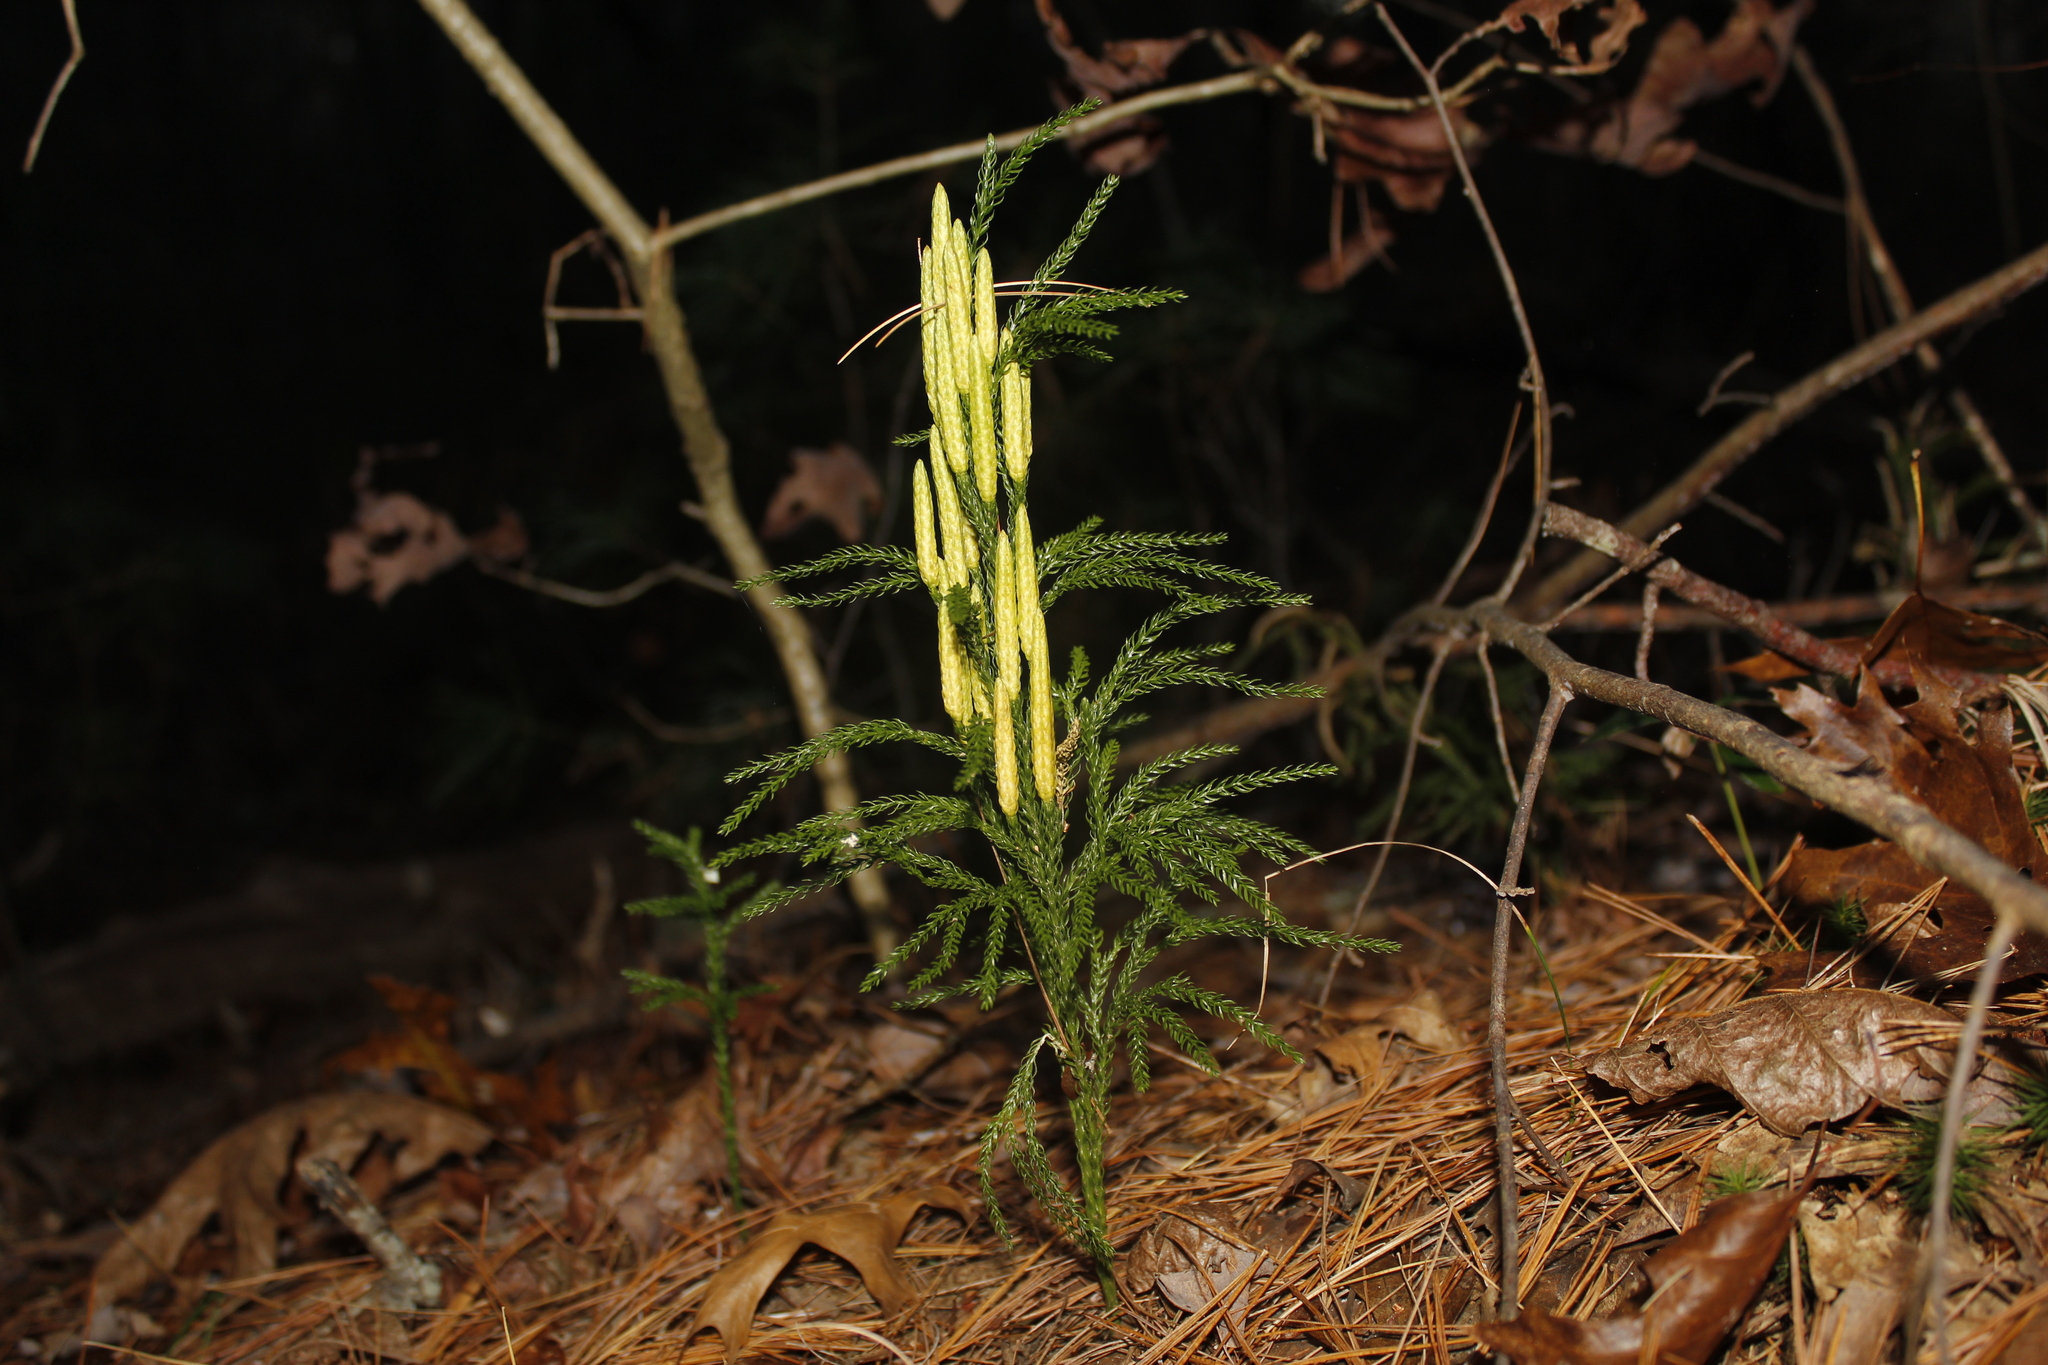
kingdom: Plantae
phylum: Tracheophyta
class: Lycopodiopsida
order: Lycopodiales
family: Lycopodiaceae
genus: Dendrolycopodium
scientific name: Dendrolycopodium obscurum
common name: Common ground-pine
